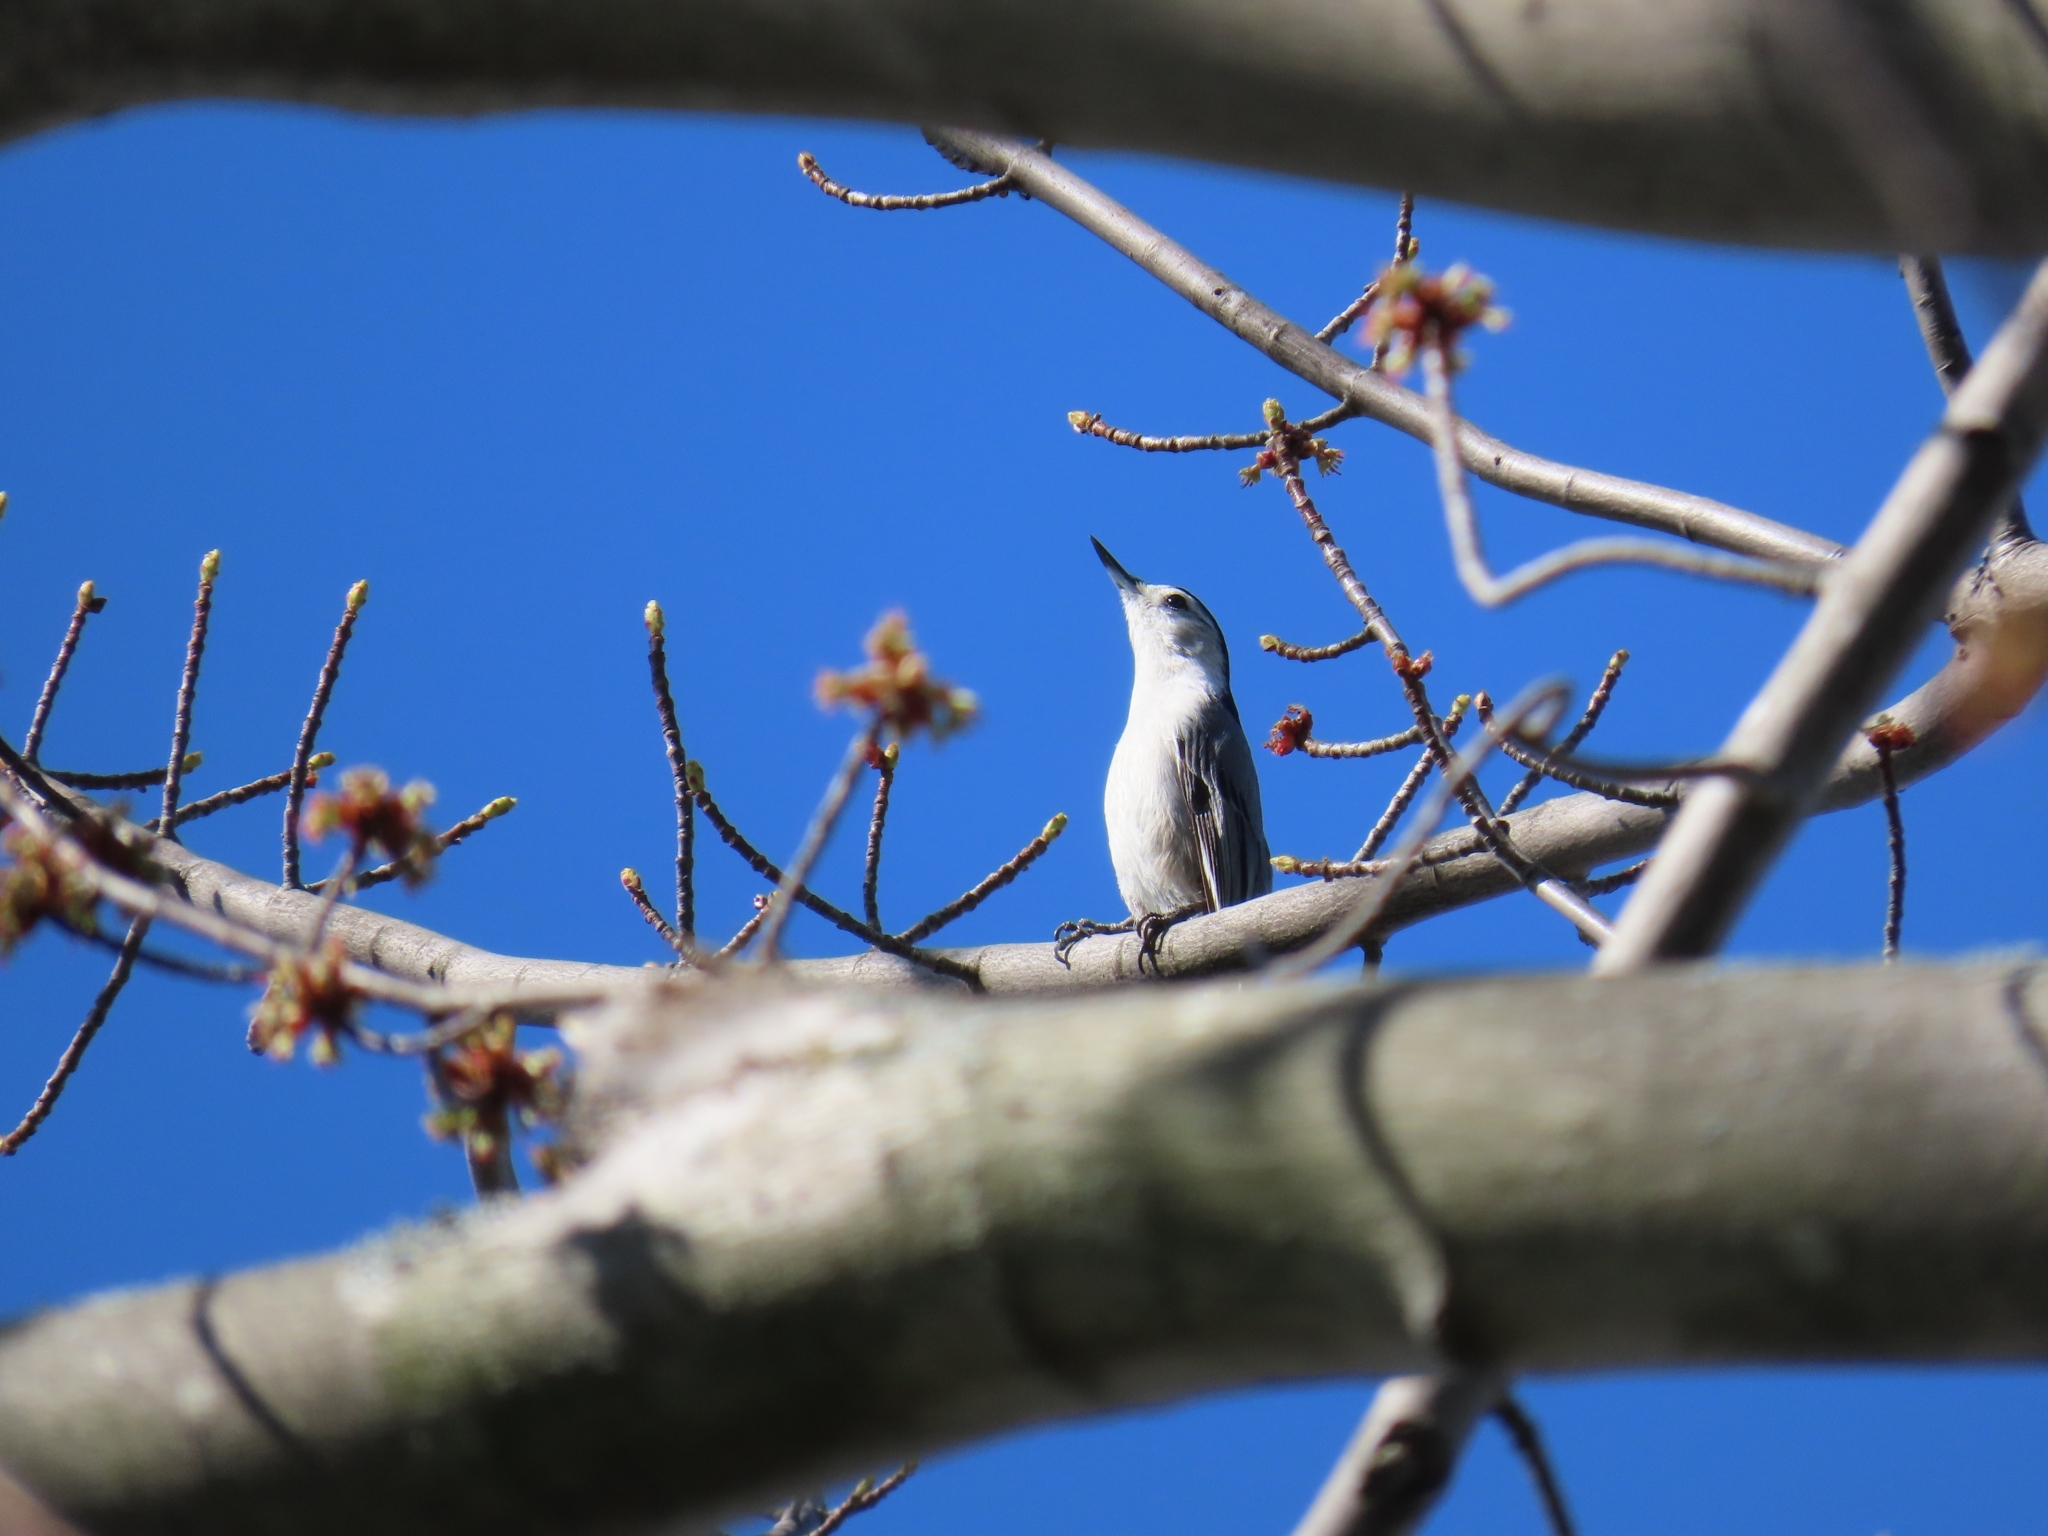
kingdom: Animalia
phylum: Chordata
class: Aves
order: Passeriformes
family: Sittidae
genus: Sitta
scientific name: Sitta carolinensis
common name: White-breasted nuthatch
